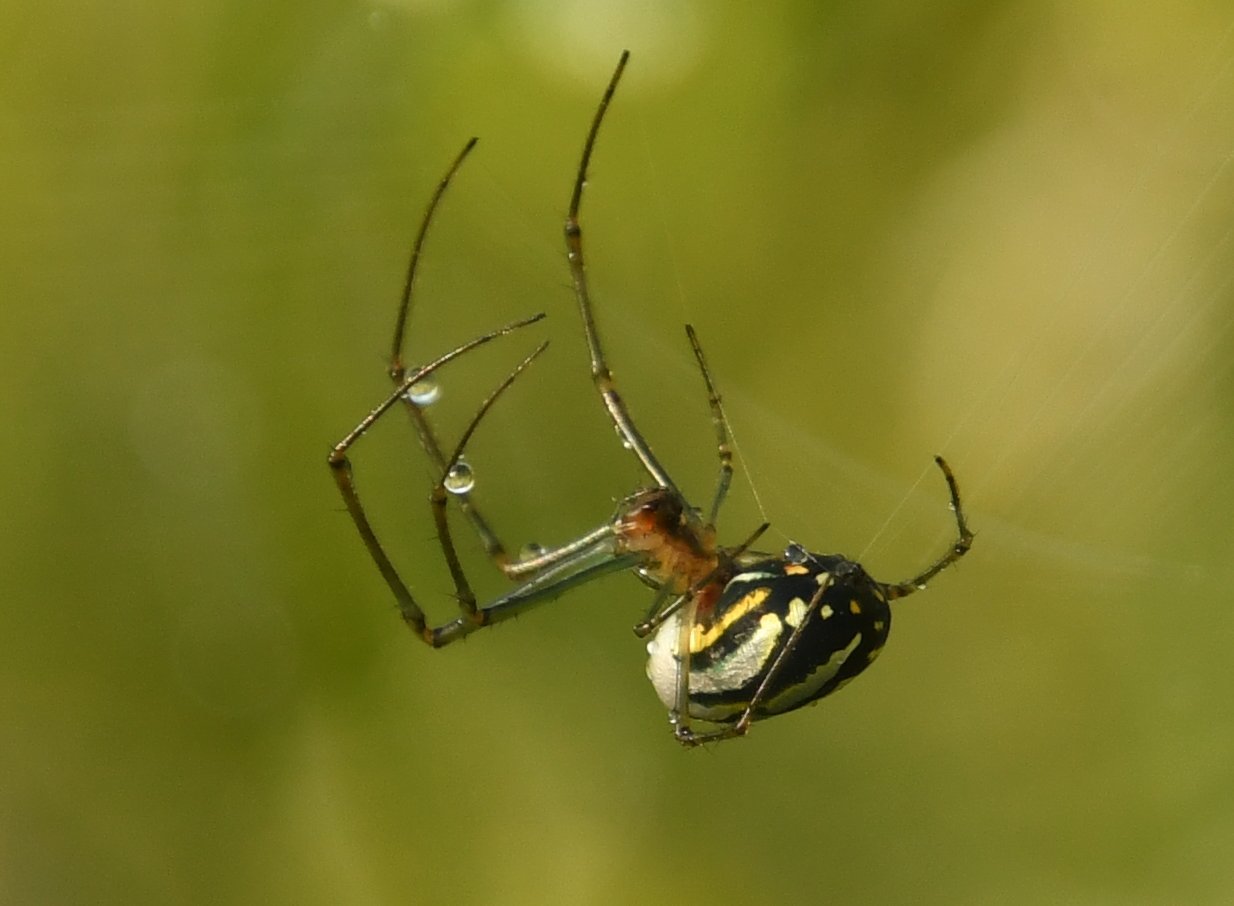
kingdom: Animalia
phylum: Arthropoda
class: Arachnida
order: Araneae
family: Tetragnathidae
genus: Leucauge
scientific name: Leucauge argyra
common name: Longjawed orb weavers
